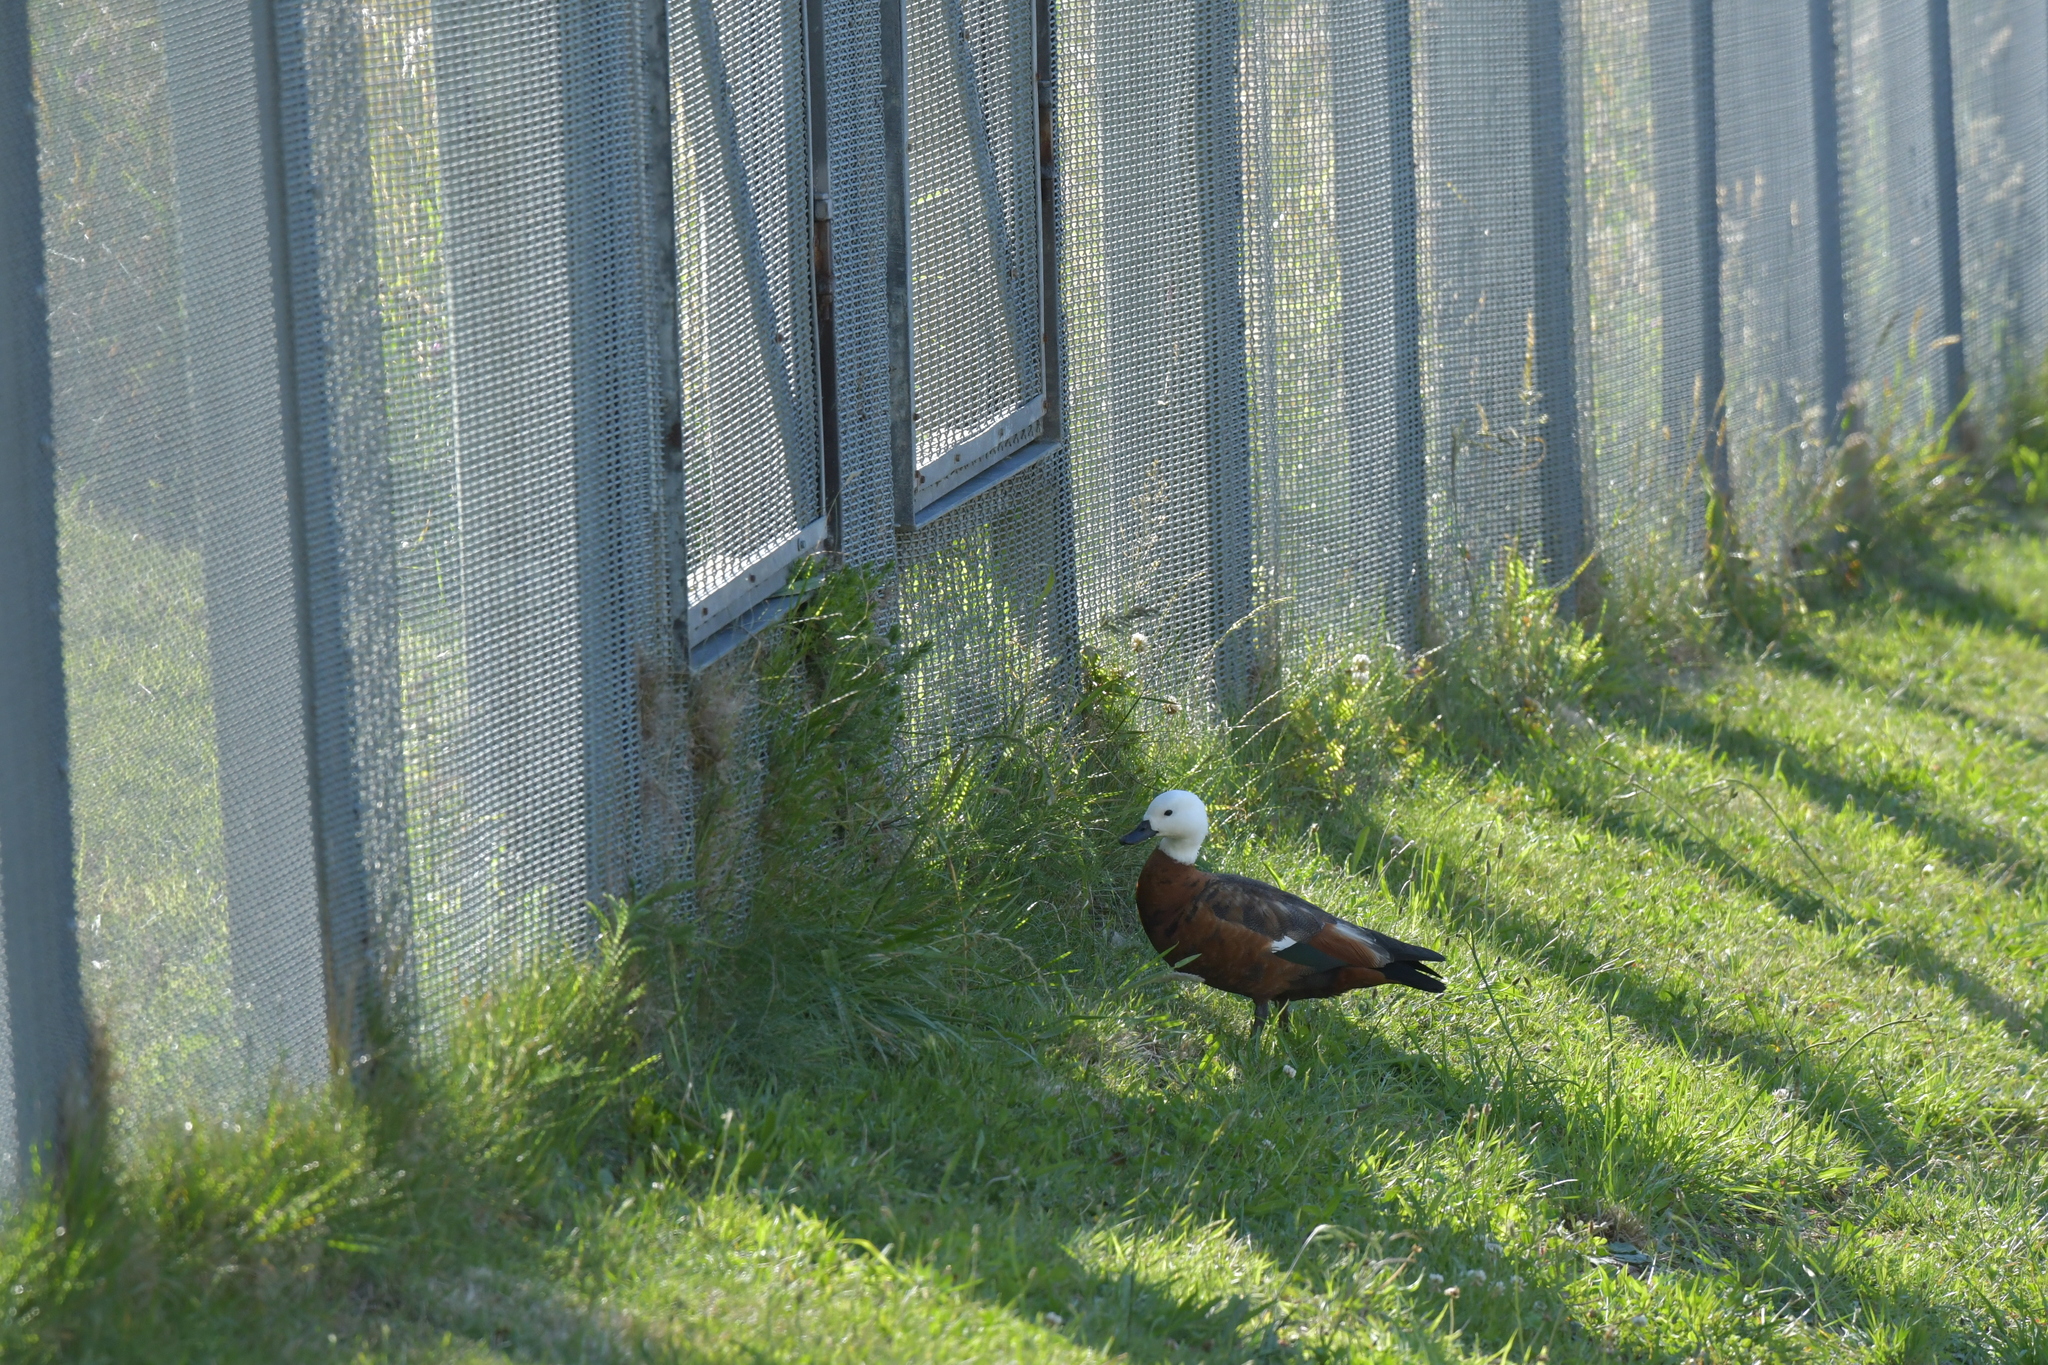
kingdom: Animalia
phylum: Chordata
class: Aves
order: Anseriformes
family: Anatidae
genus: Tadorna
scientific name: Tadorna variegata
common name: Paradise shelduck
